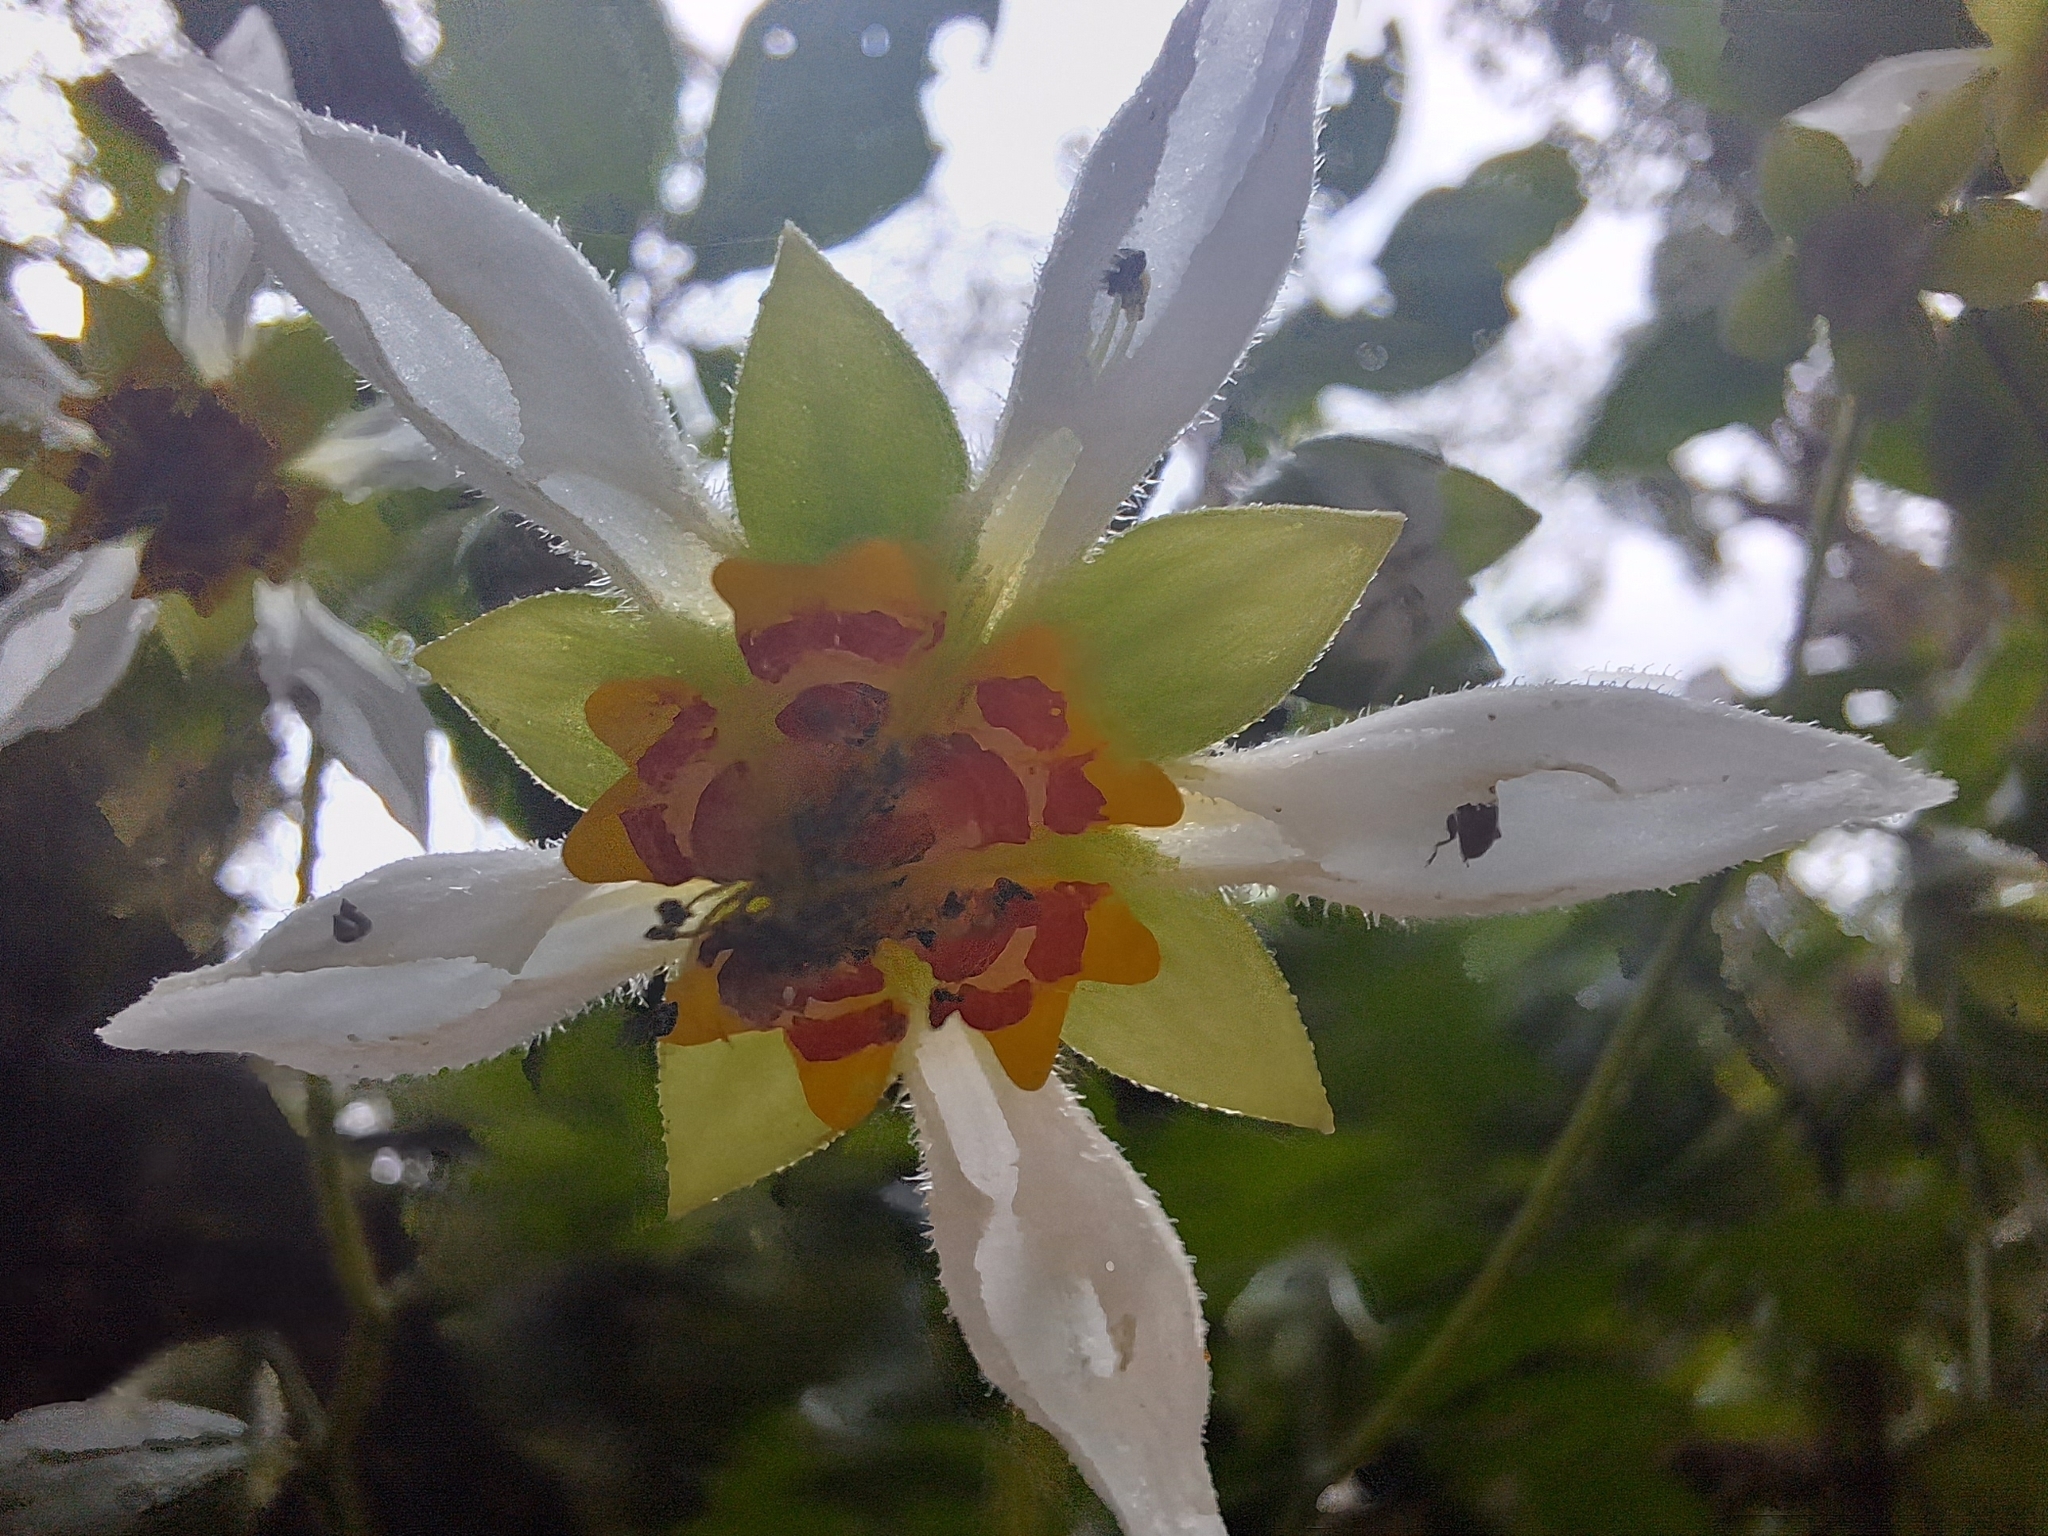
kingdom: Plantae
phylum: Tracheophyta
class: Magnoliopsida
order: Cornales
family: Loasaceae
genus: Nasa
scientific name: Nasa aequatoriana
